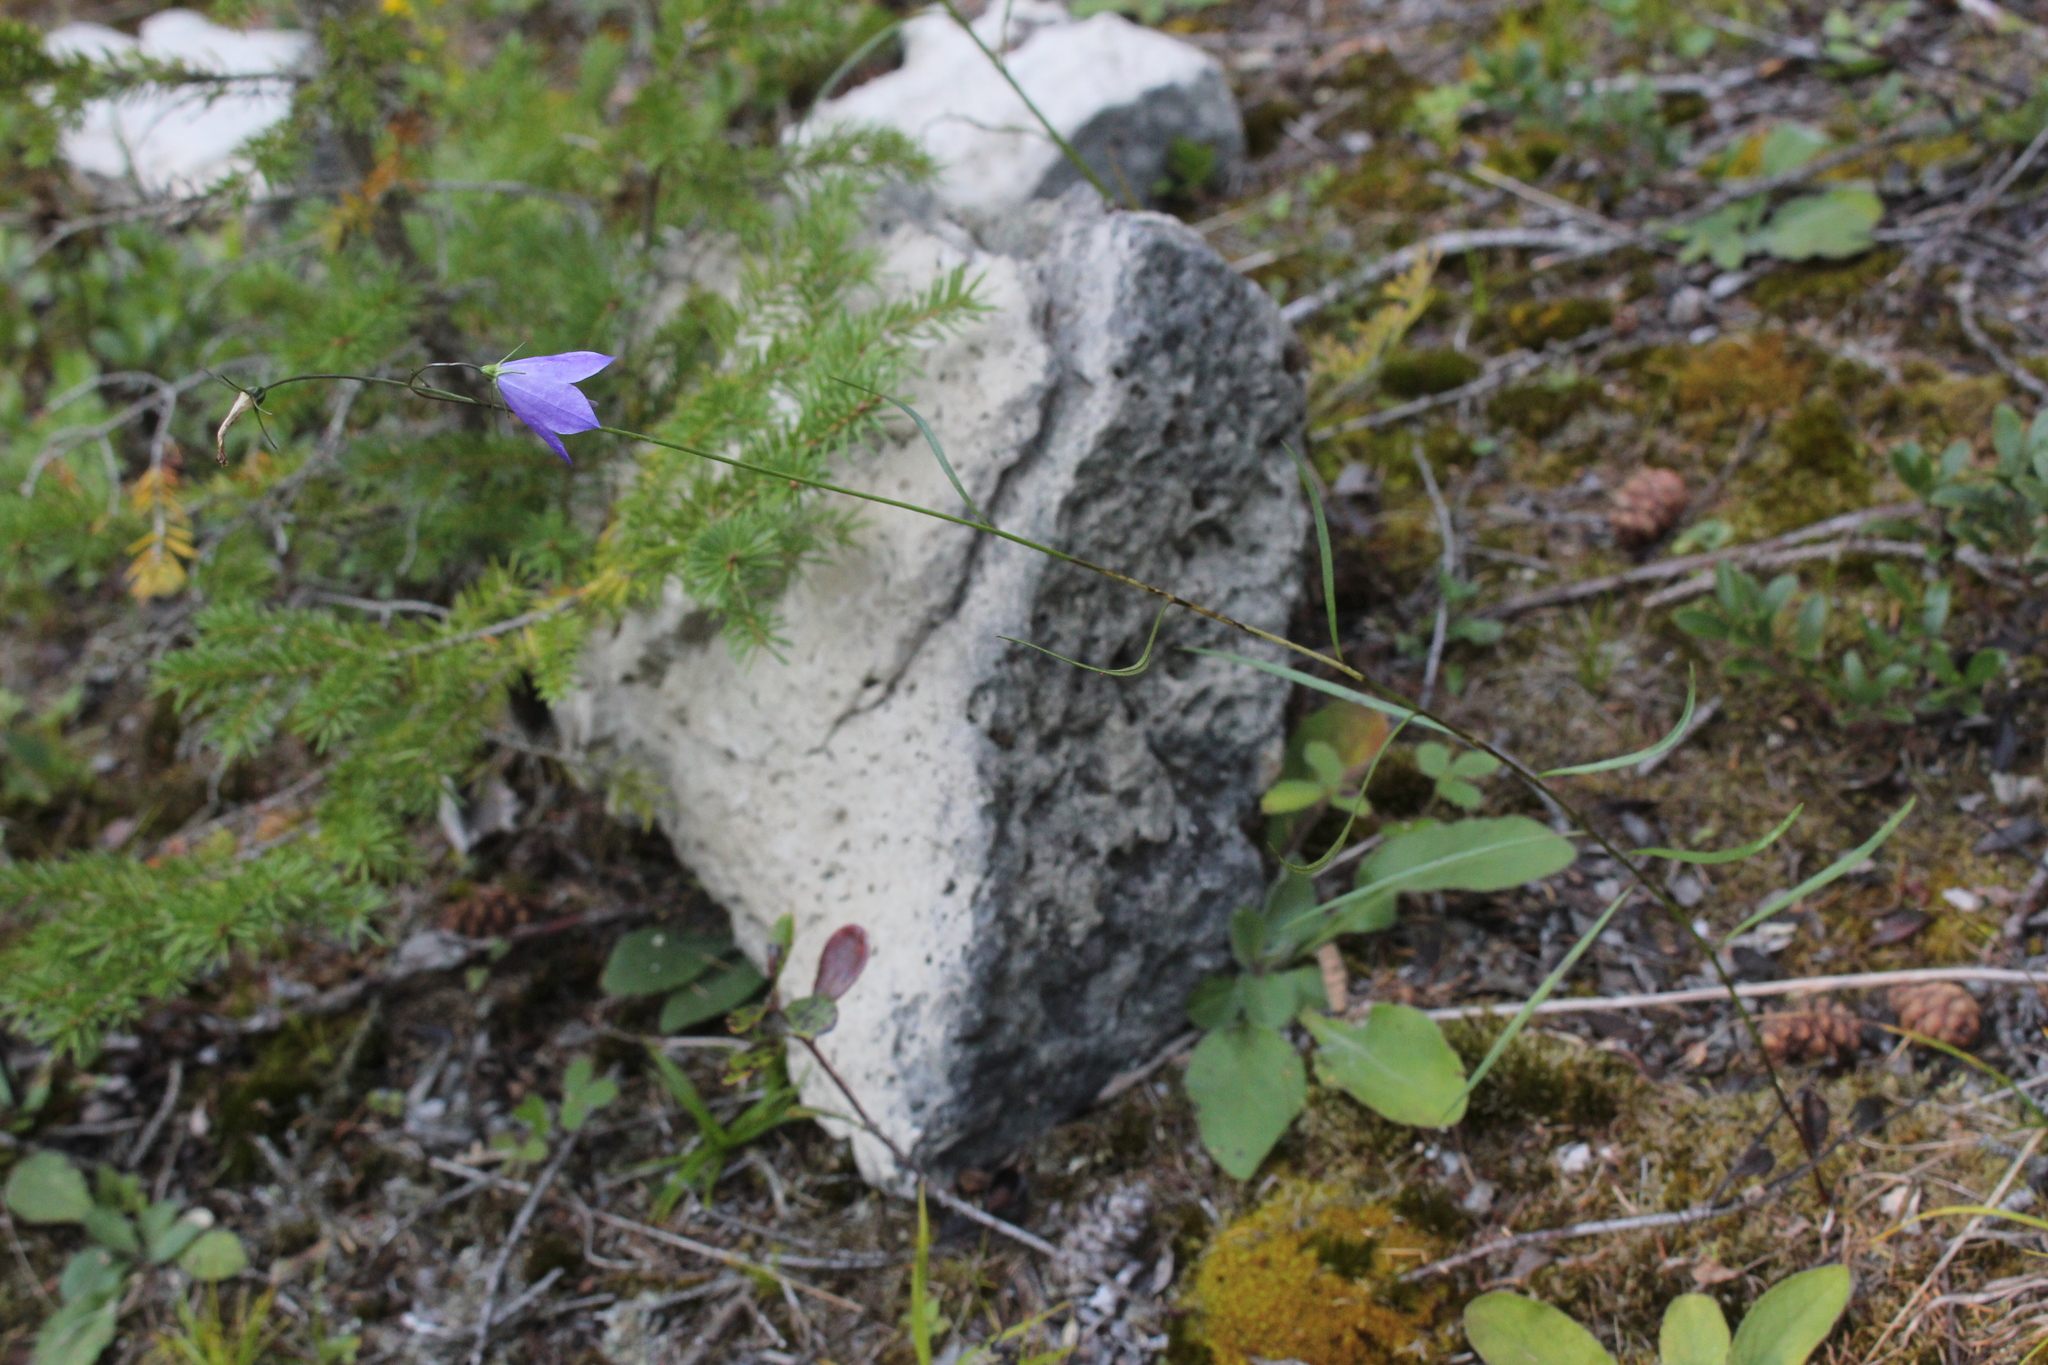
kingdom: Plantae
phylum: Tracheophyta
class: Magnoliopsida
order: Asterales
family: Campanulaceae
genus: Campanula
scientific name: Campanula giesekiana
